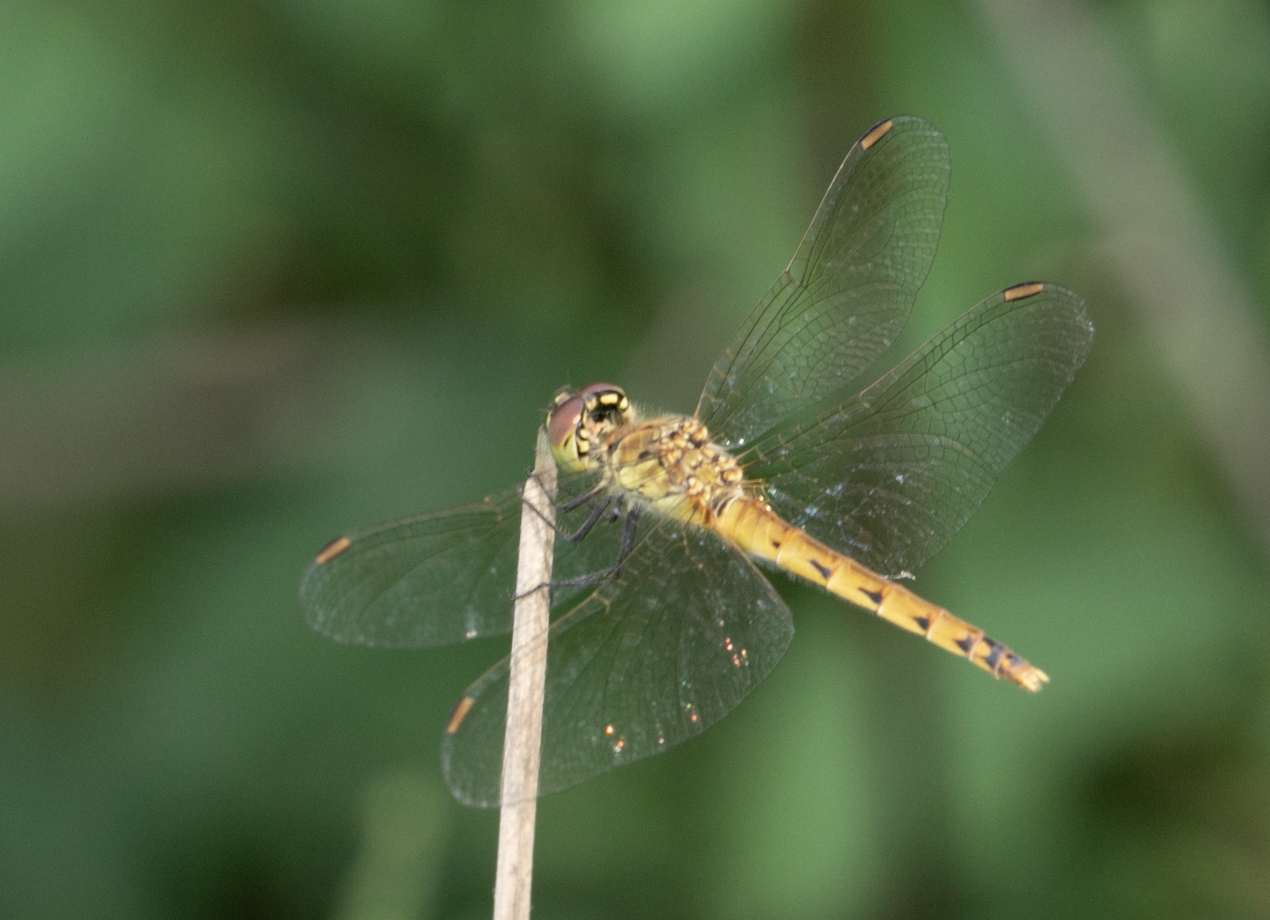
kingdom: Animalia
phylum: Arthropoda
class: Insecta
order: Odonata
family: Libellulidae
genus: Sympetrum
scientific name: Sympetrum depressiusculum
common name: Spotted darter
